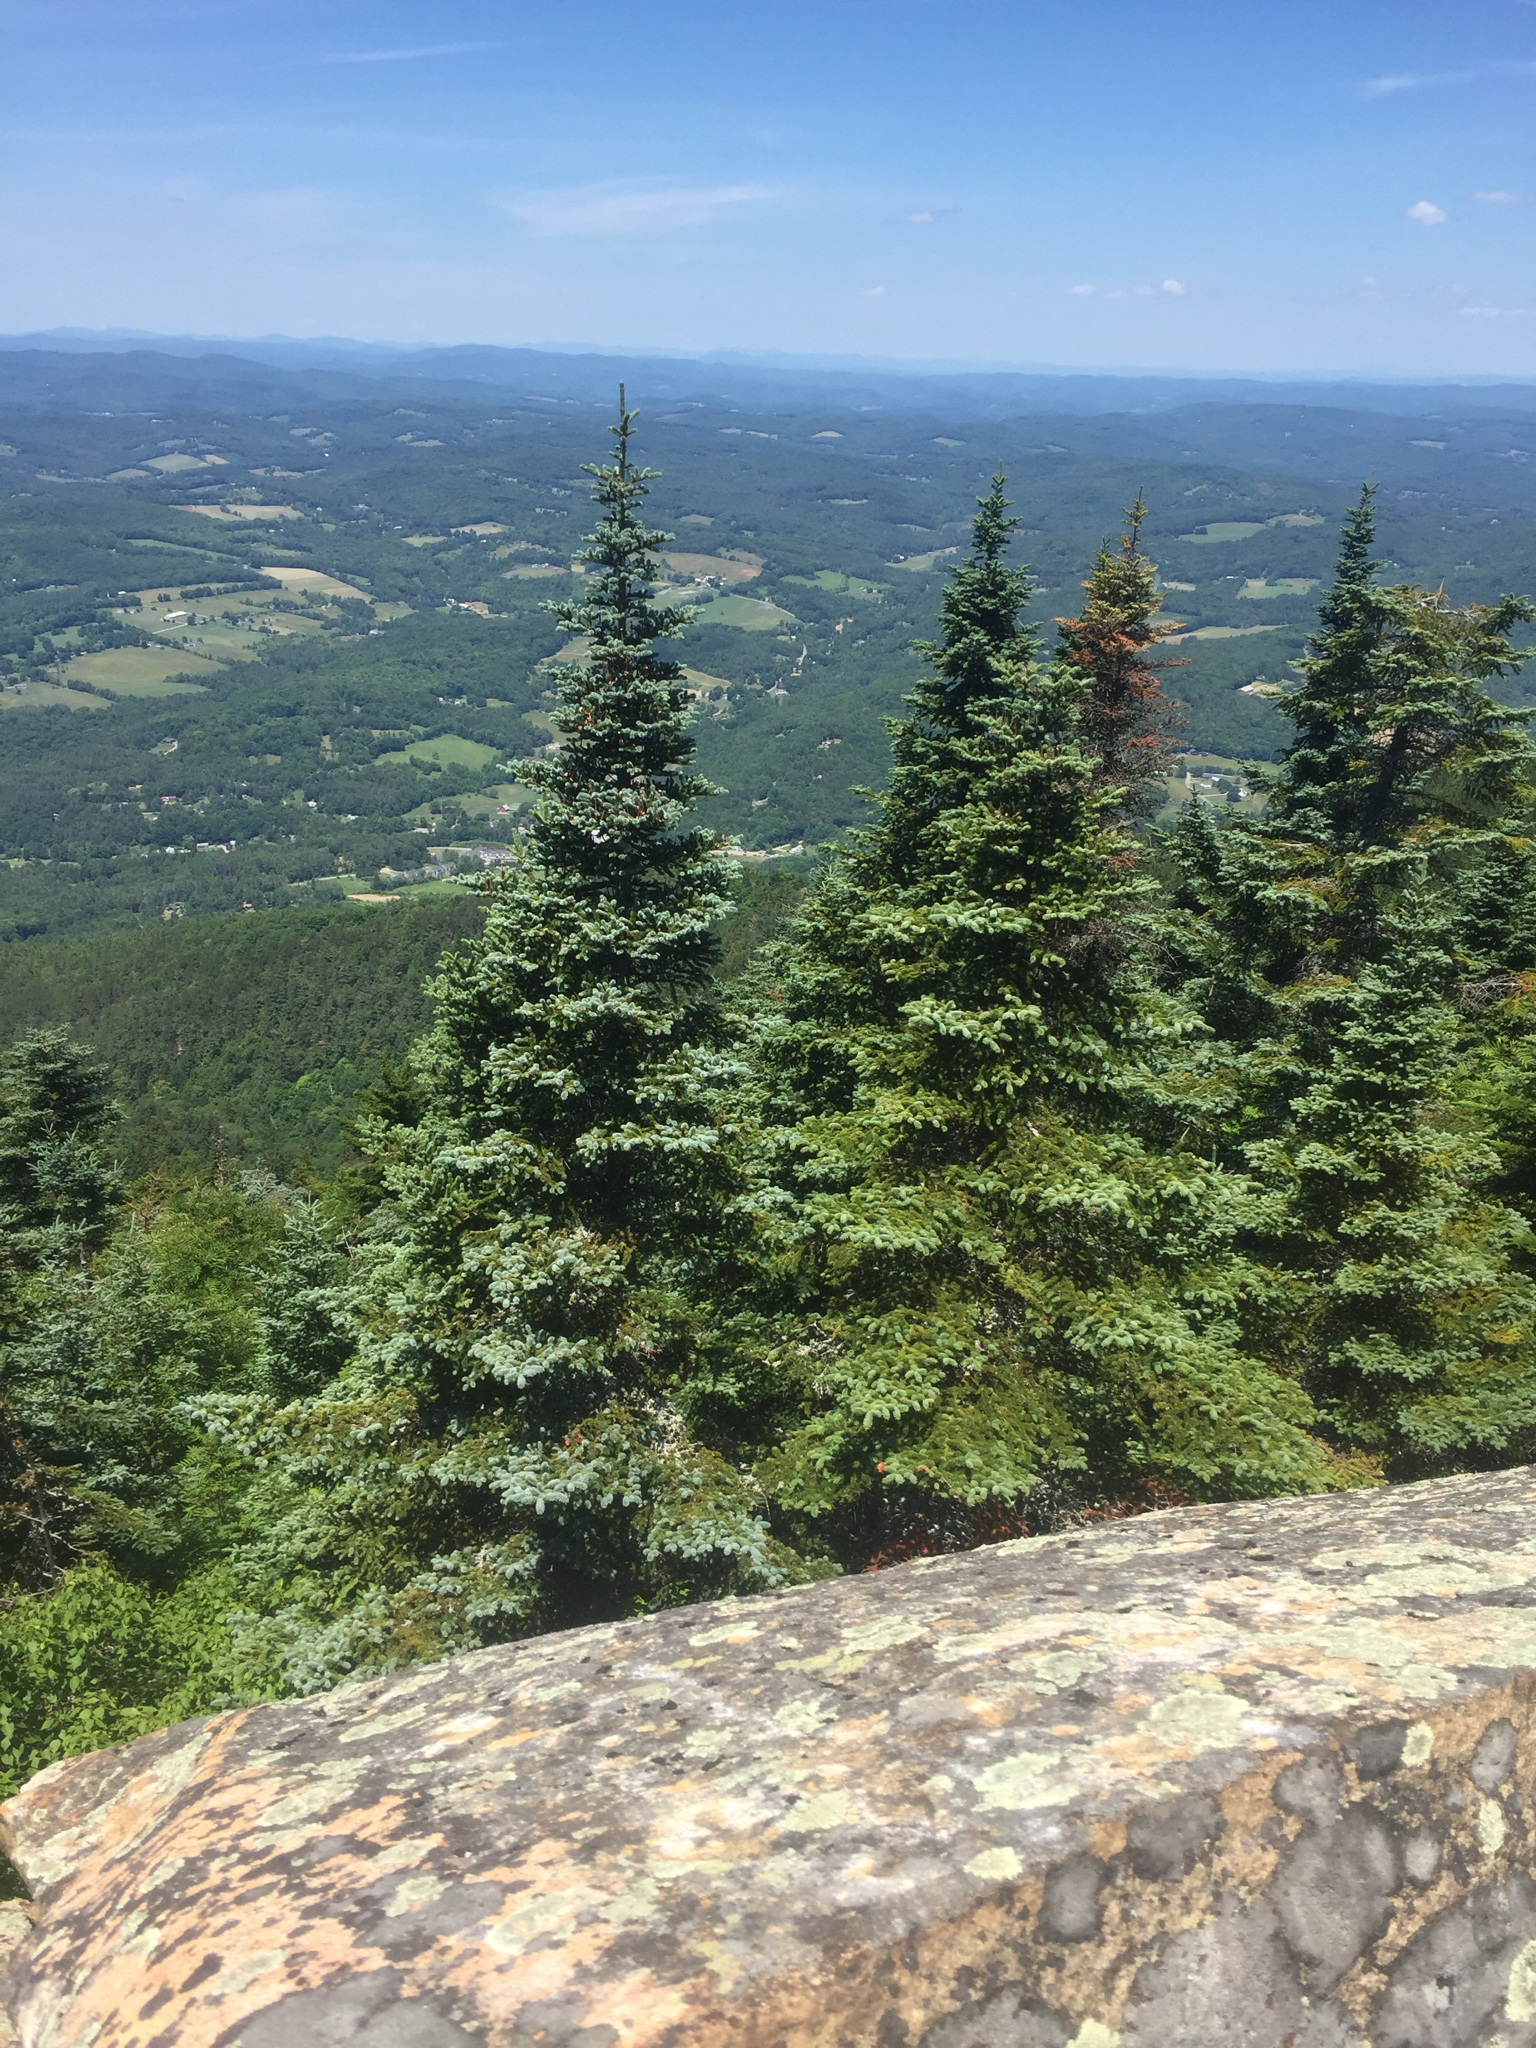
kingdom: Plantae
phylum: Tracheophyta
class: Pinopsida
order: Pinales
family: Pinaceae
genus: Abies
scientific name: Abies balsamea
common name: Balsam fir
